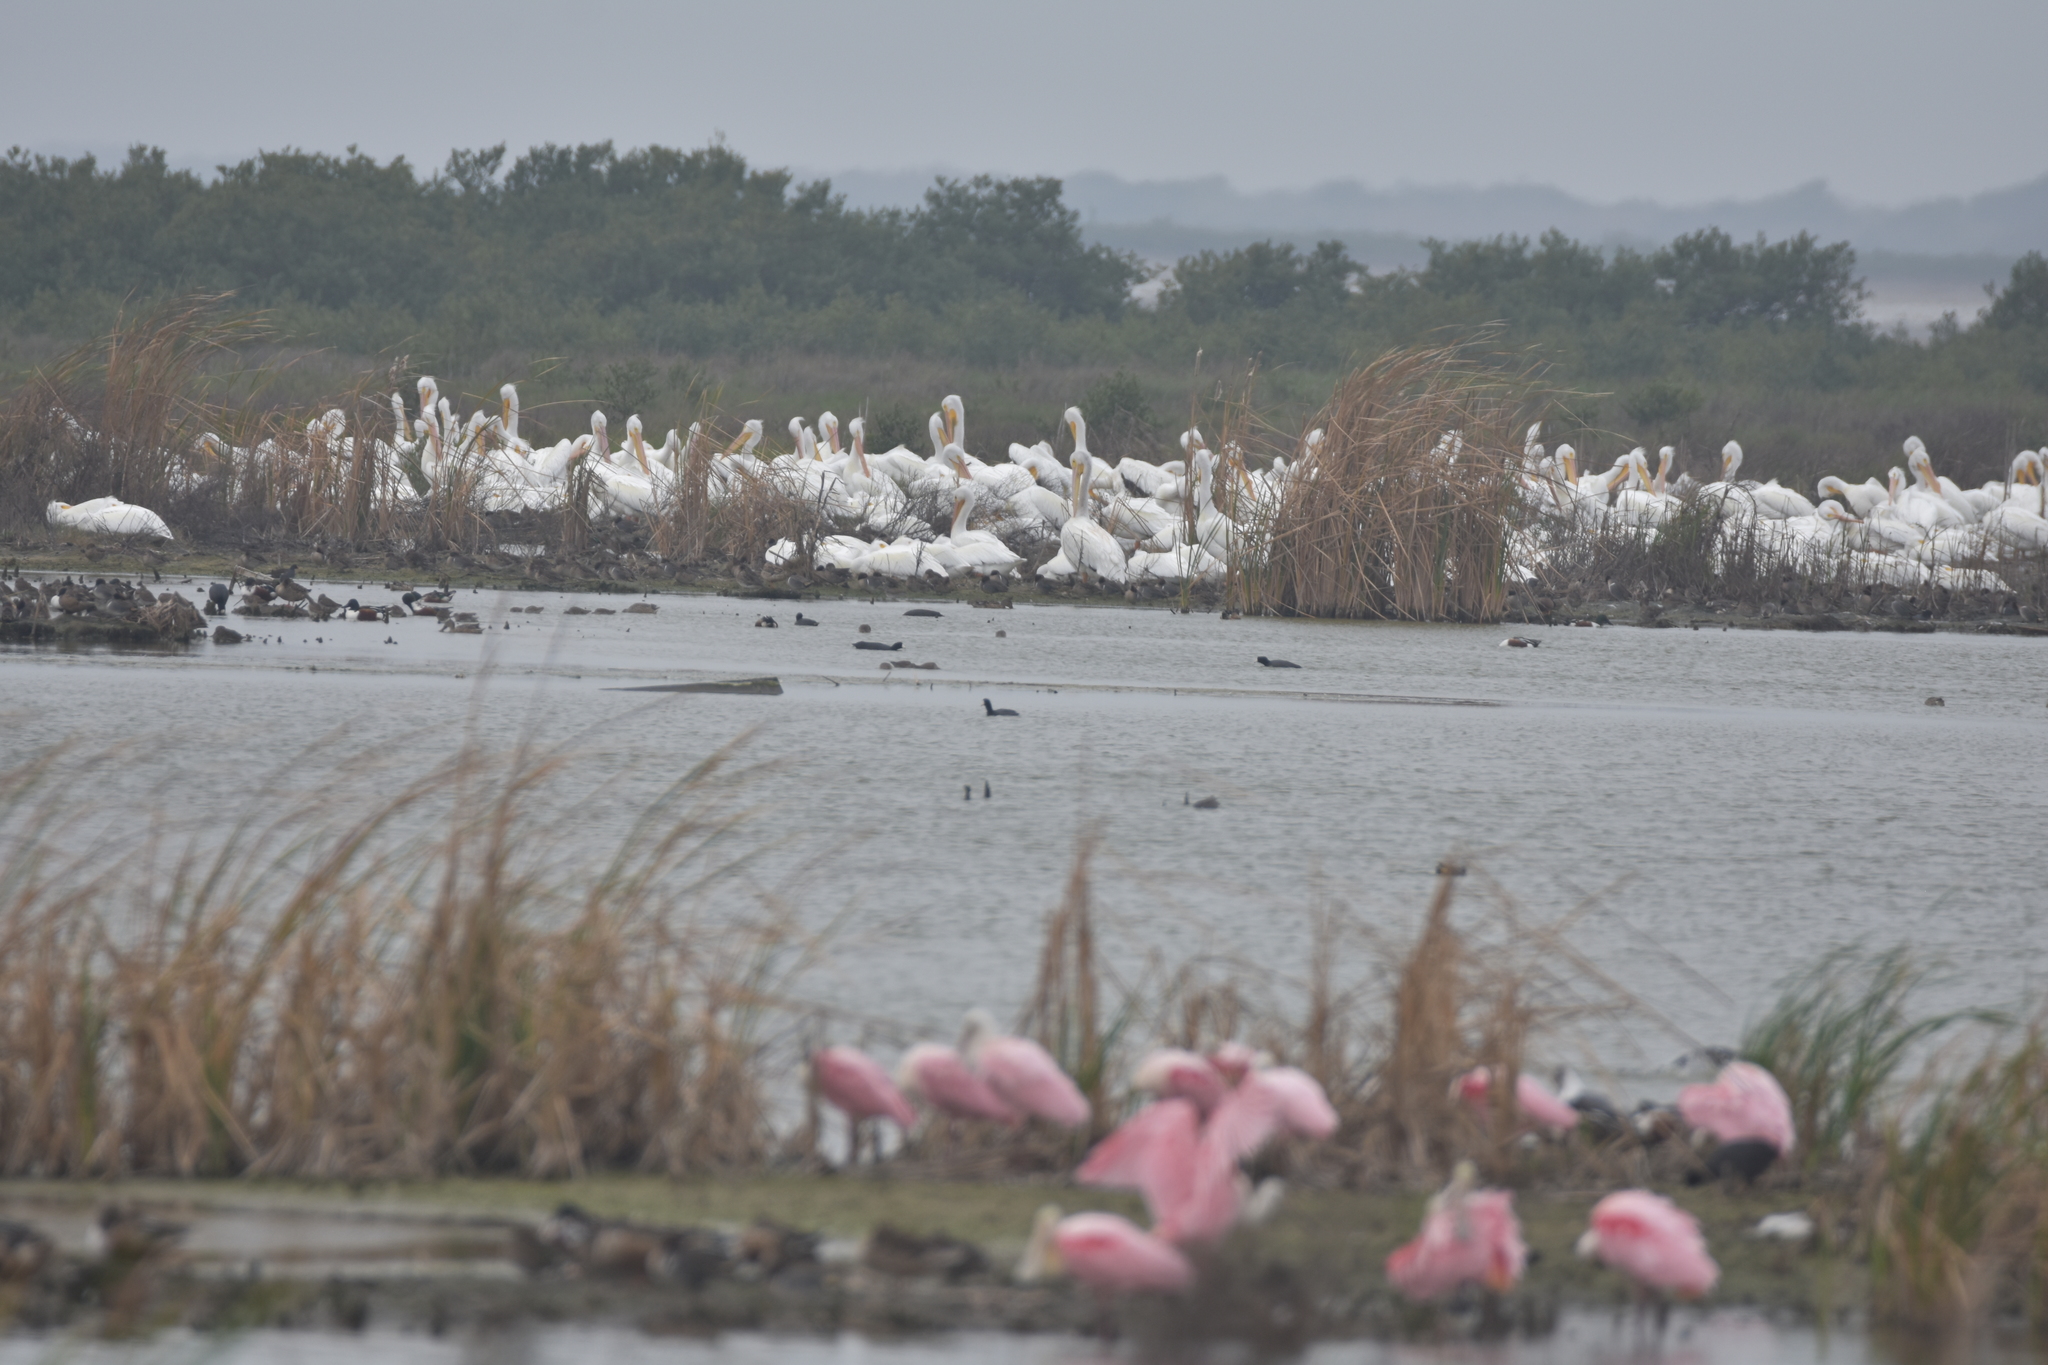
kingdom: Animalia
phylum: Chordata
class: Aves
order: Pelecaniformes
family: Pelecanidae
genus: Pelecanus
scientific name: Pelecanus erythrorhynchos
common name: American white pelican
